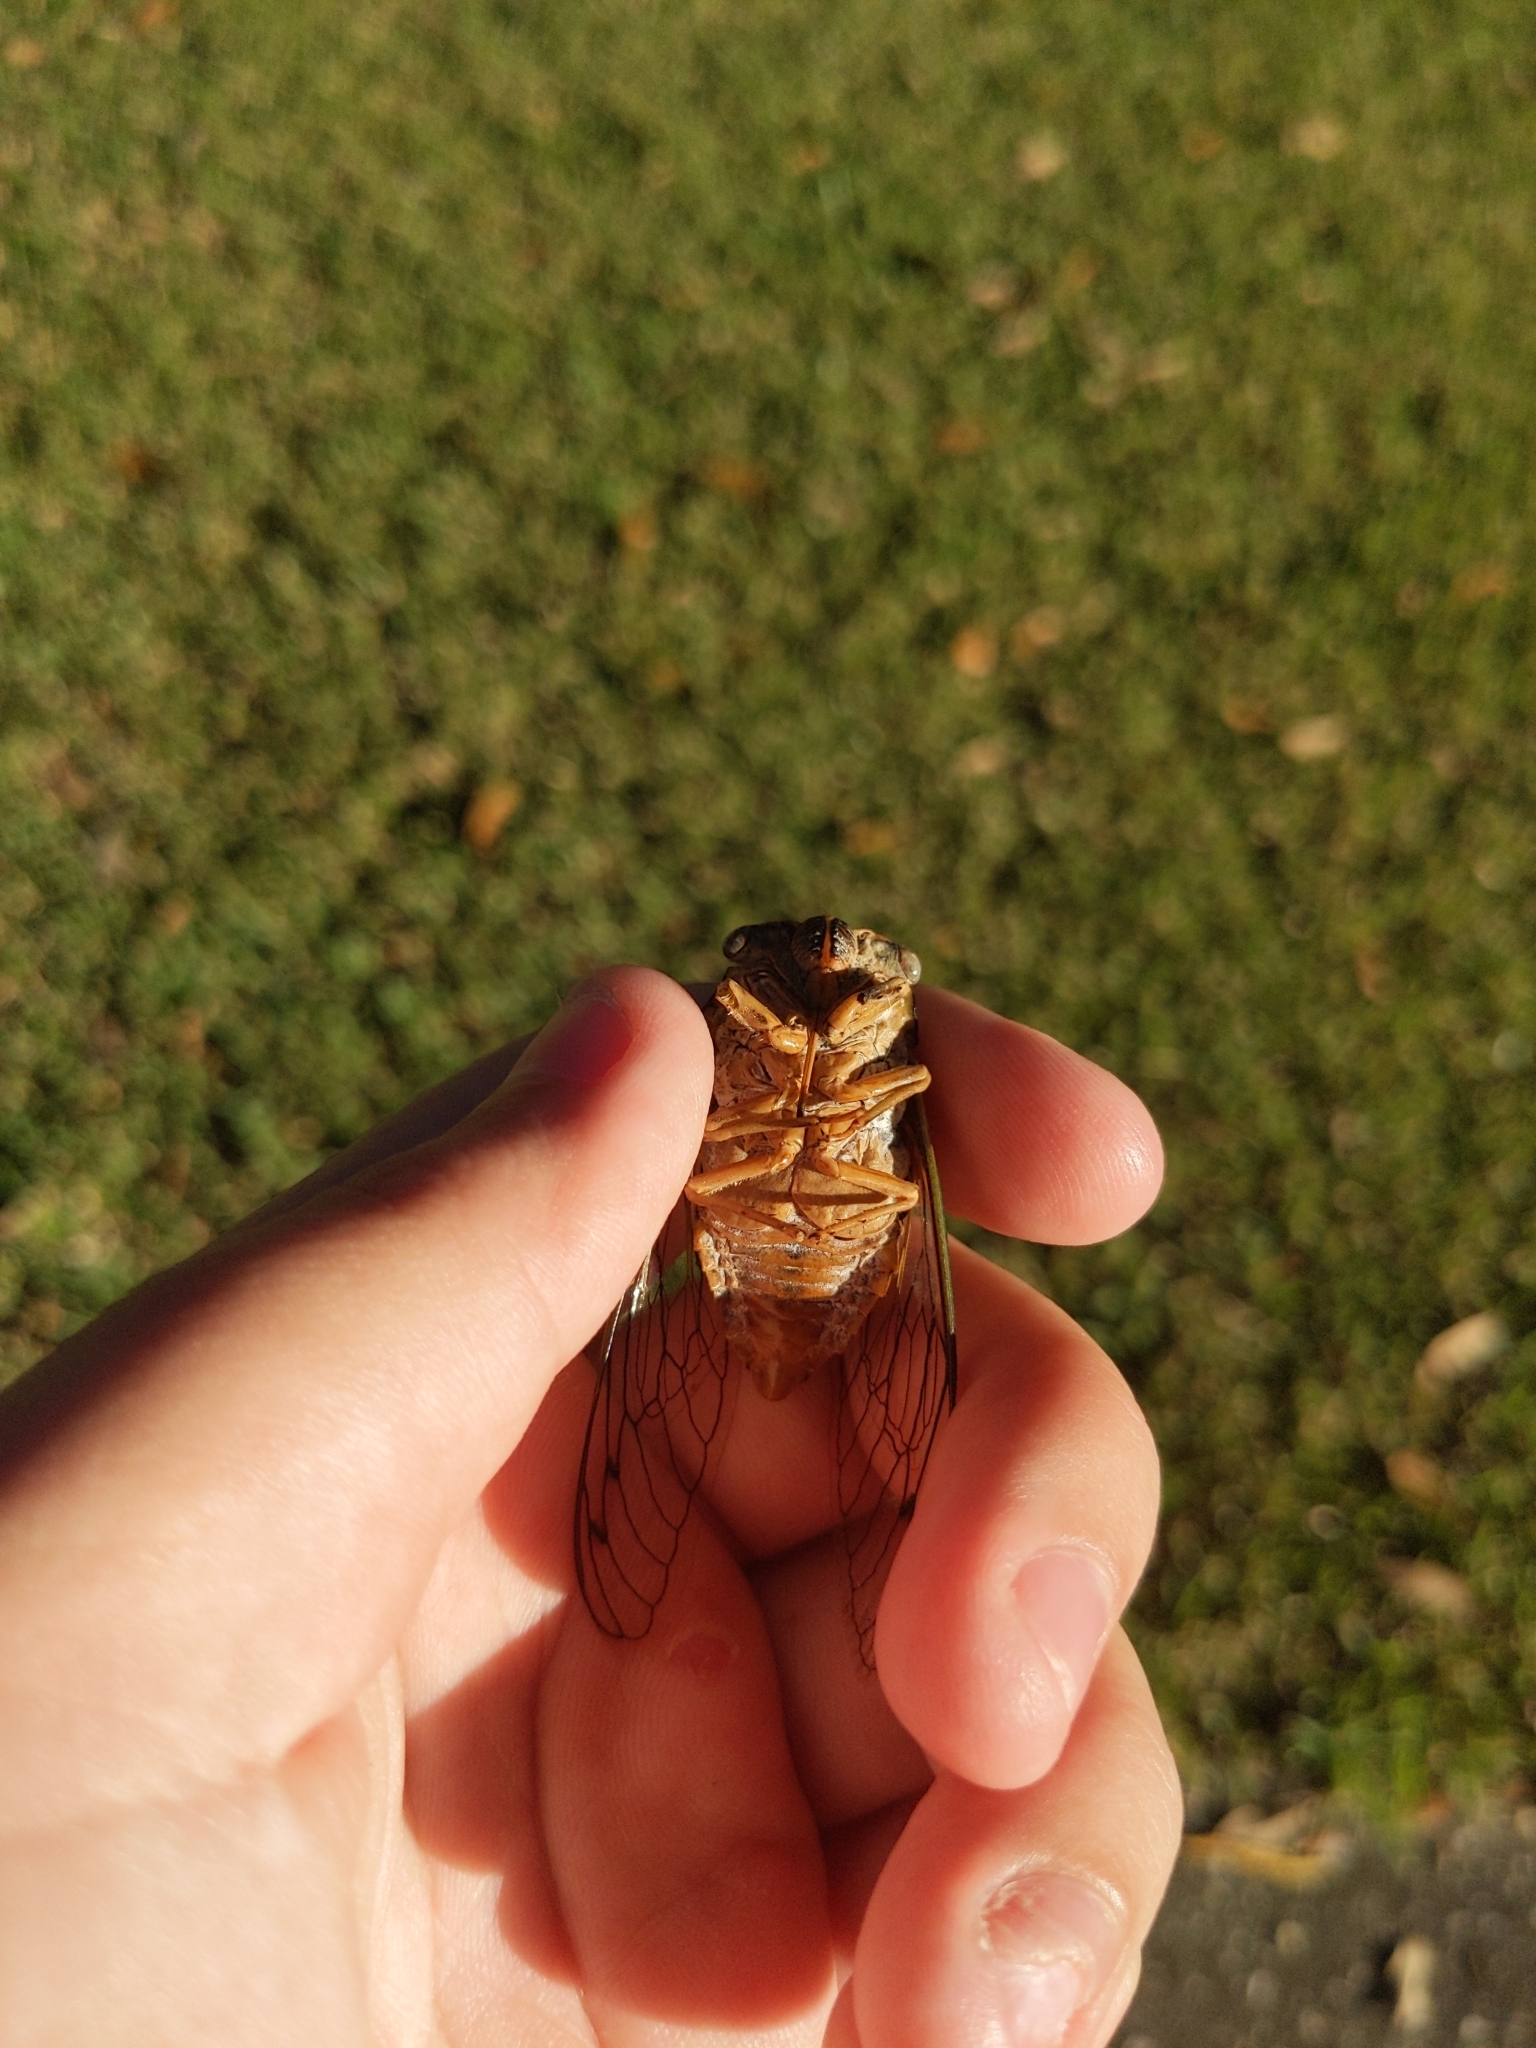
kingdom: Animalia
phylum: Arthropoda
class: Insecta
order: Hemiptera
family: Cicadidae
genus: Megatibicen
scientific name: Megatibicen resh
